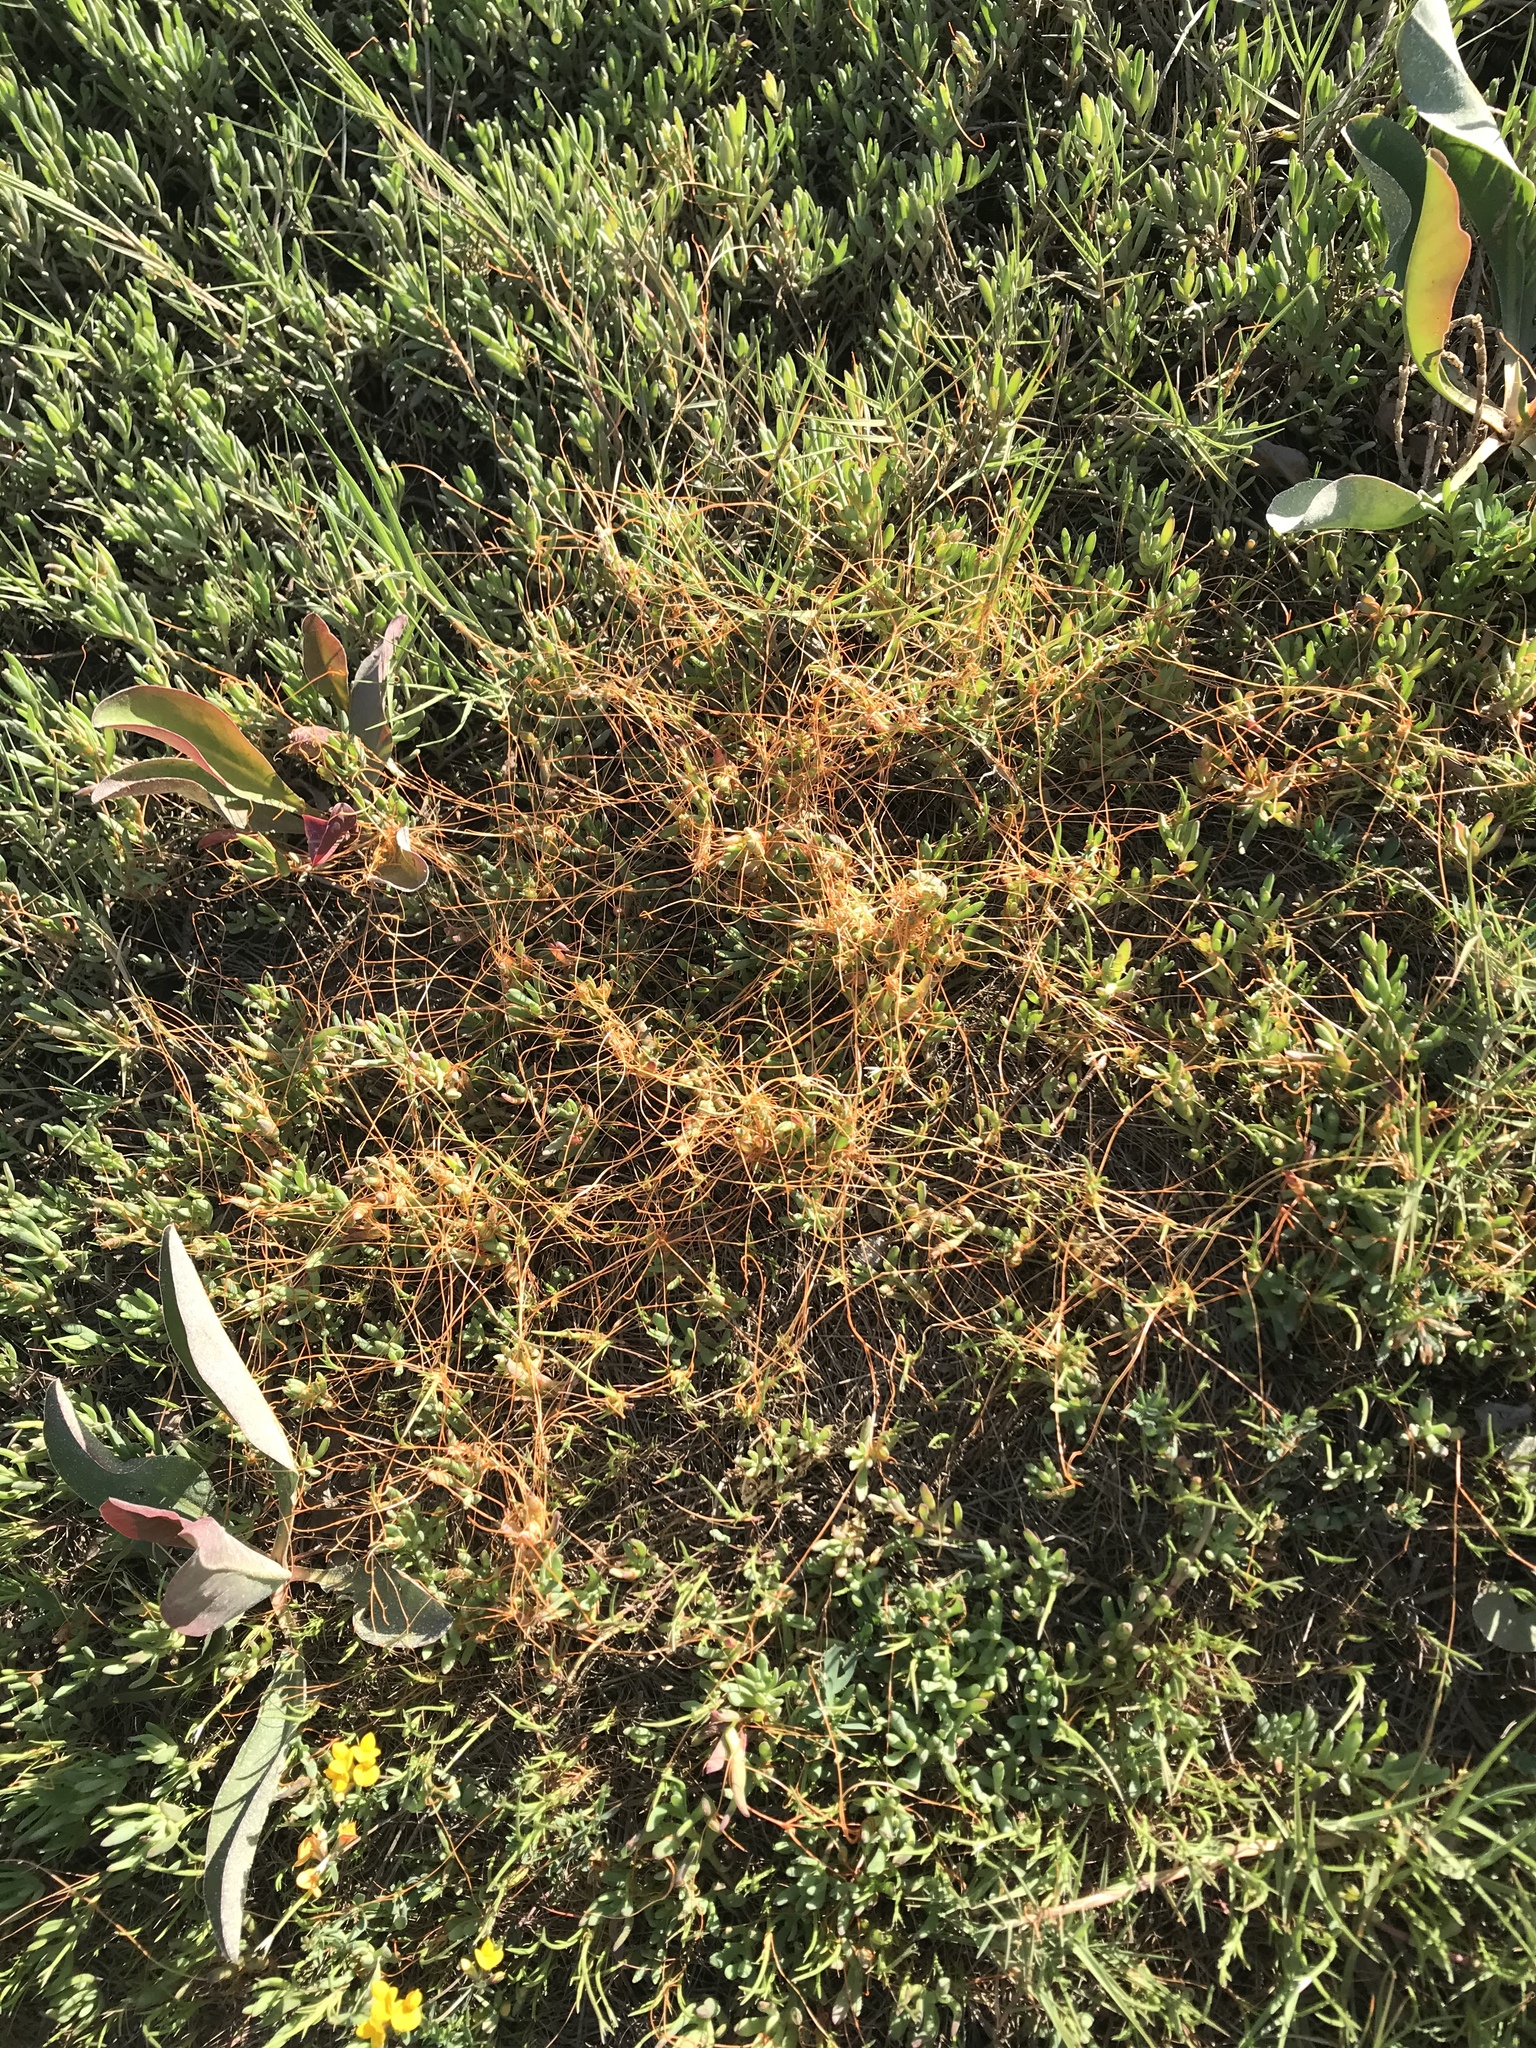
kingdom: Plantae
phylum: Tracheophyta
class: Magnoliopsida
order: Solanales
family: Convolvulaceae
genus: Cuscuta
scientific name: Cuscuta pacifica
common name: Large saltmarsh dodder
